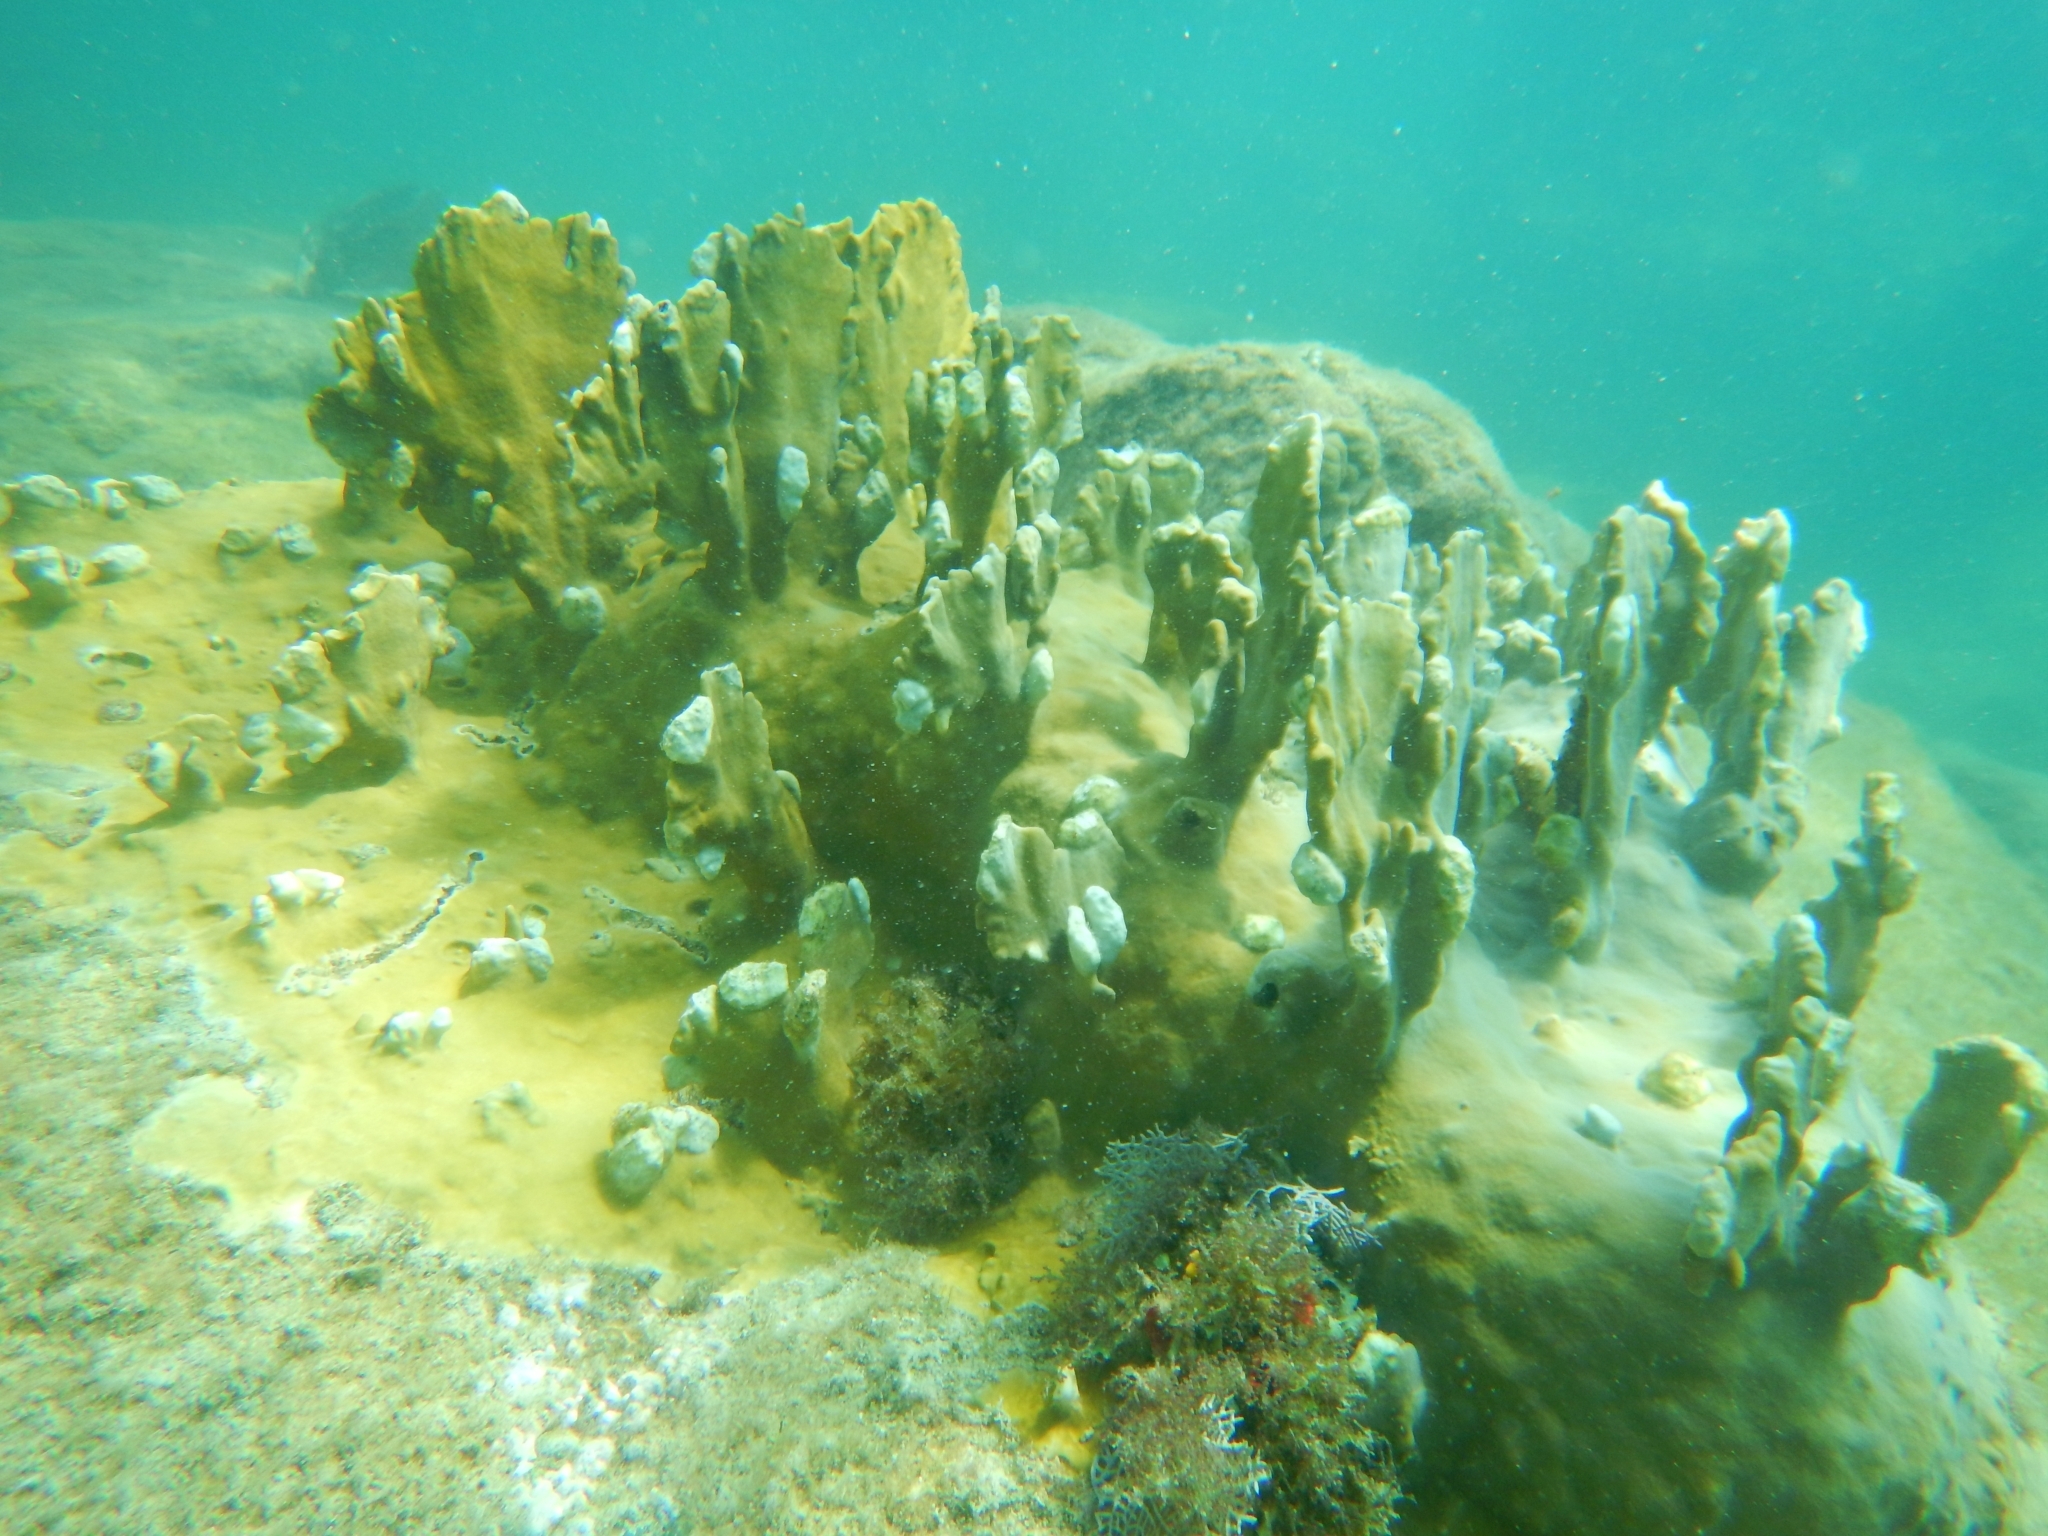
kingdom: Animalia
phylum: Cnidaria
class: Hydrozoa
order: Anthoathecata
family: Milleporidae
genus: Millepora
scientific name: Millepora complanata
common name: Bladed fire coral
